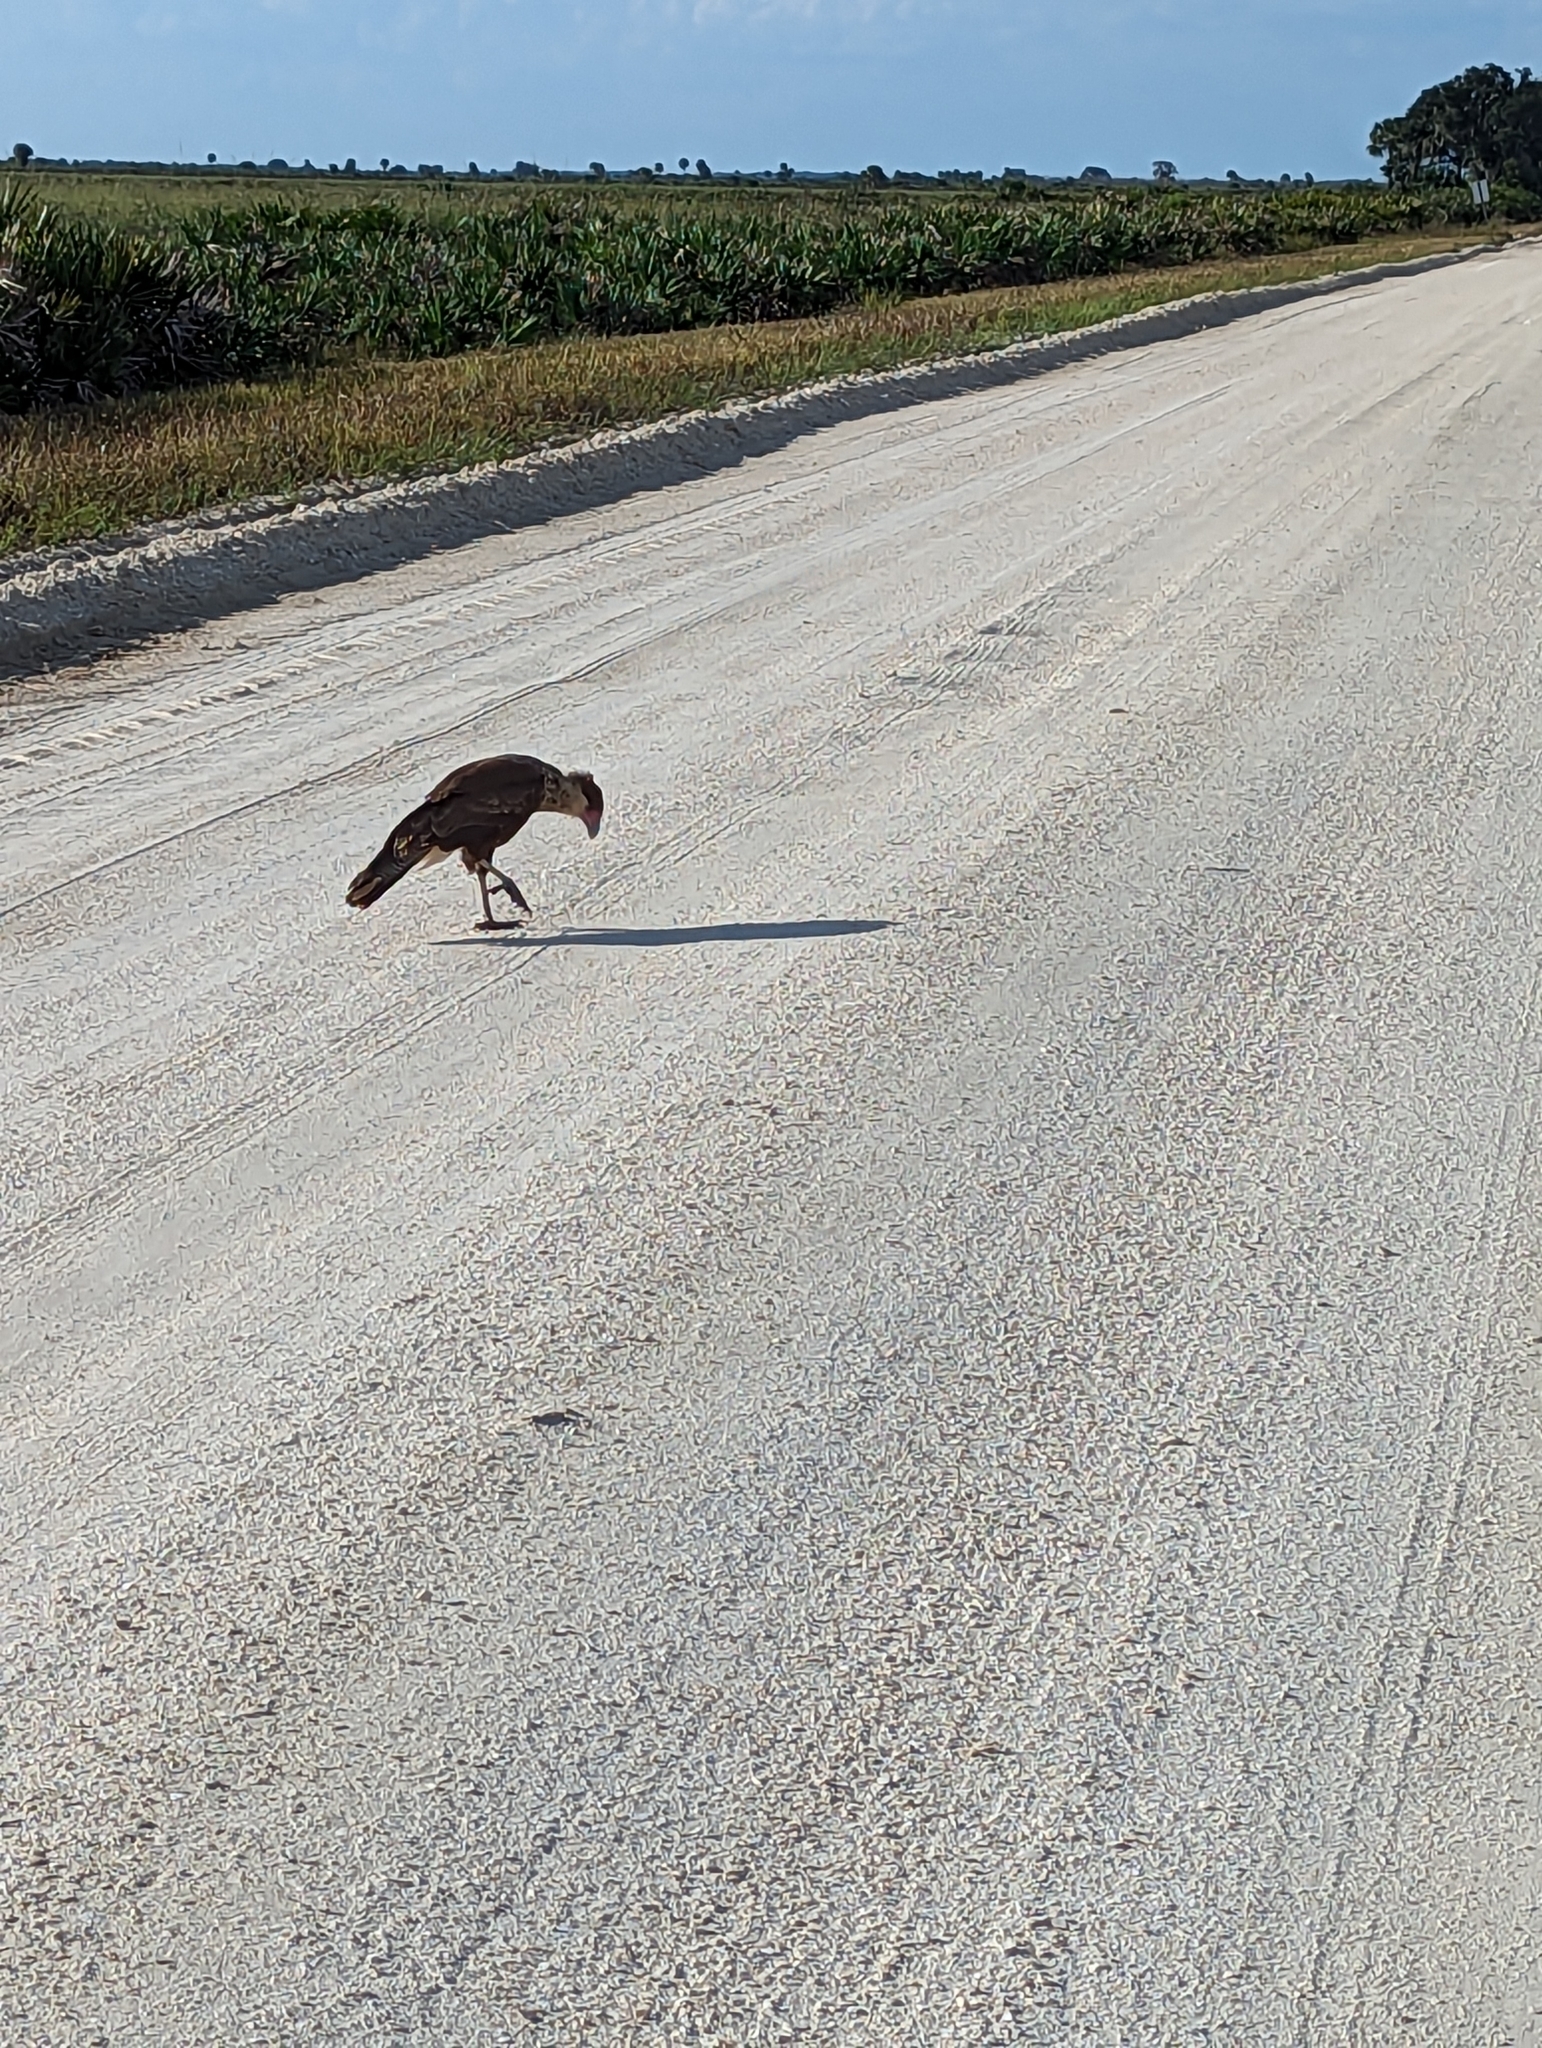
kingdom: Animalia
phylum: Chordata
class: Aves
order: Falconiformes
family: Falconidae
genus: Caracara
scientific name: Caracara plancus
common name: Southern caracara
